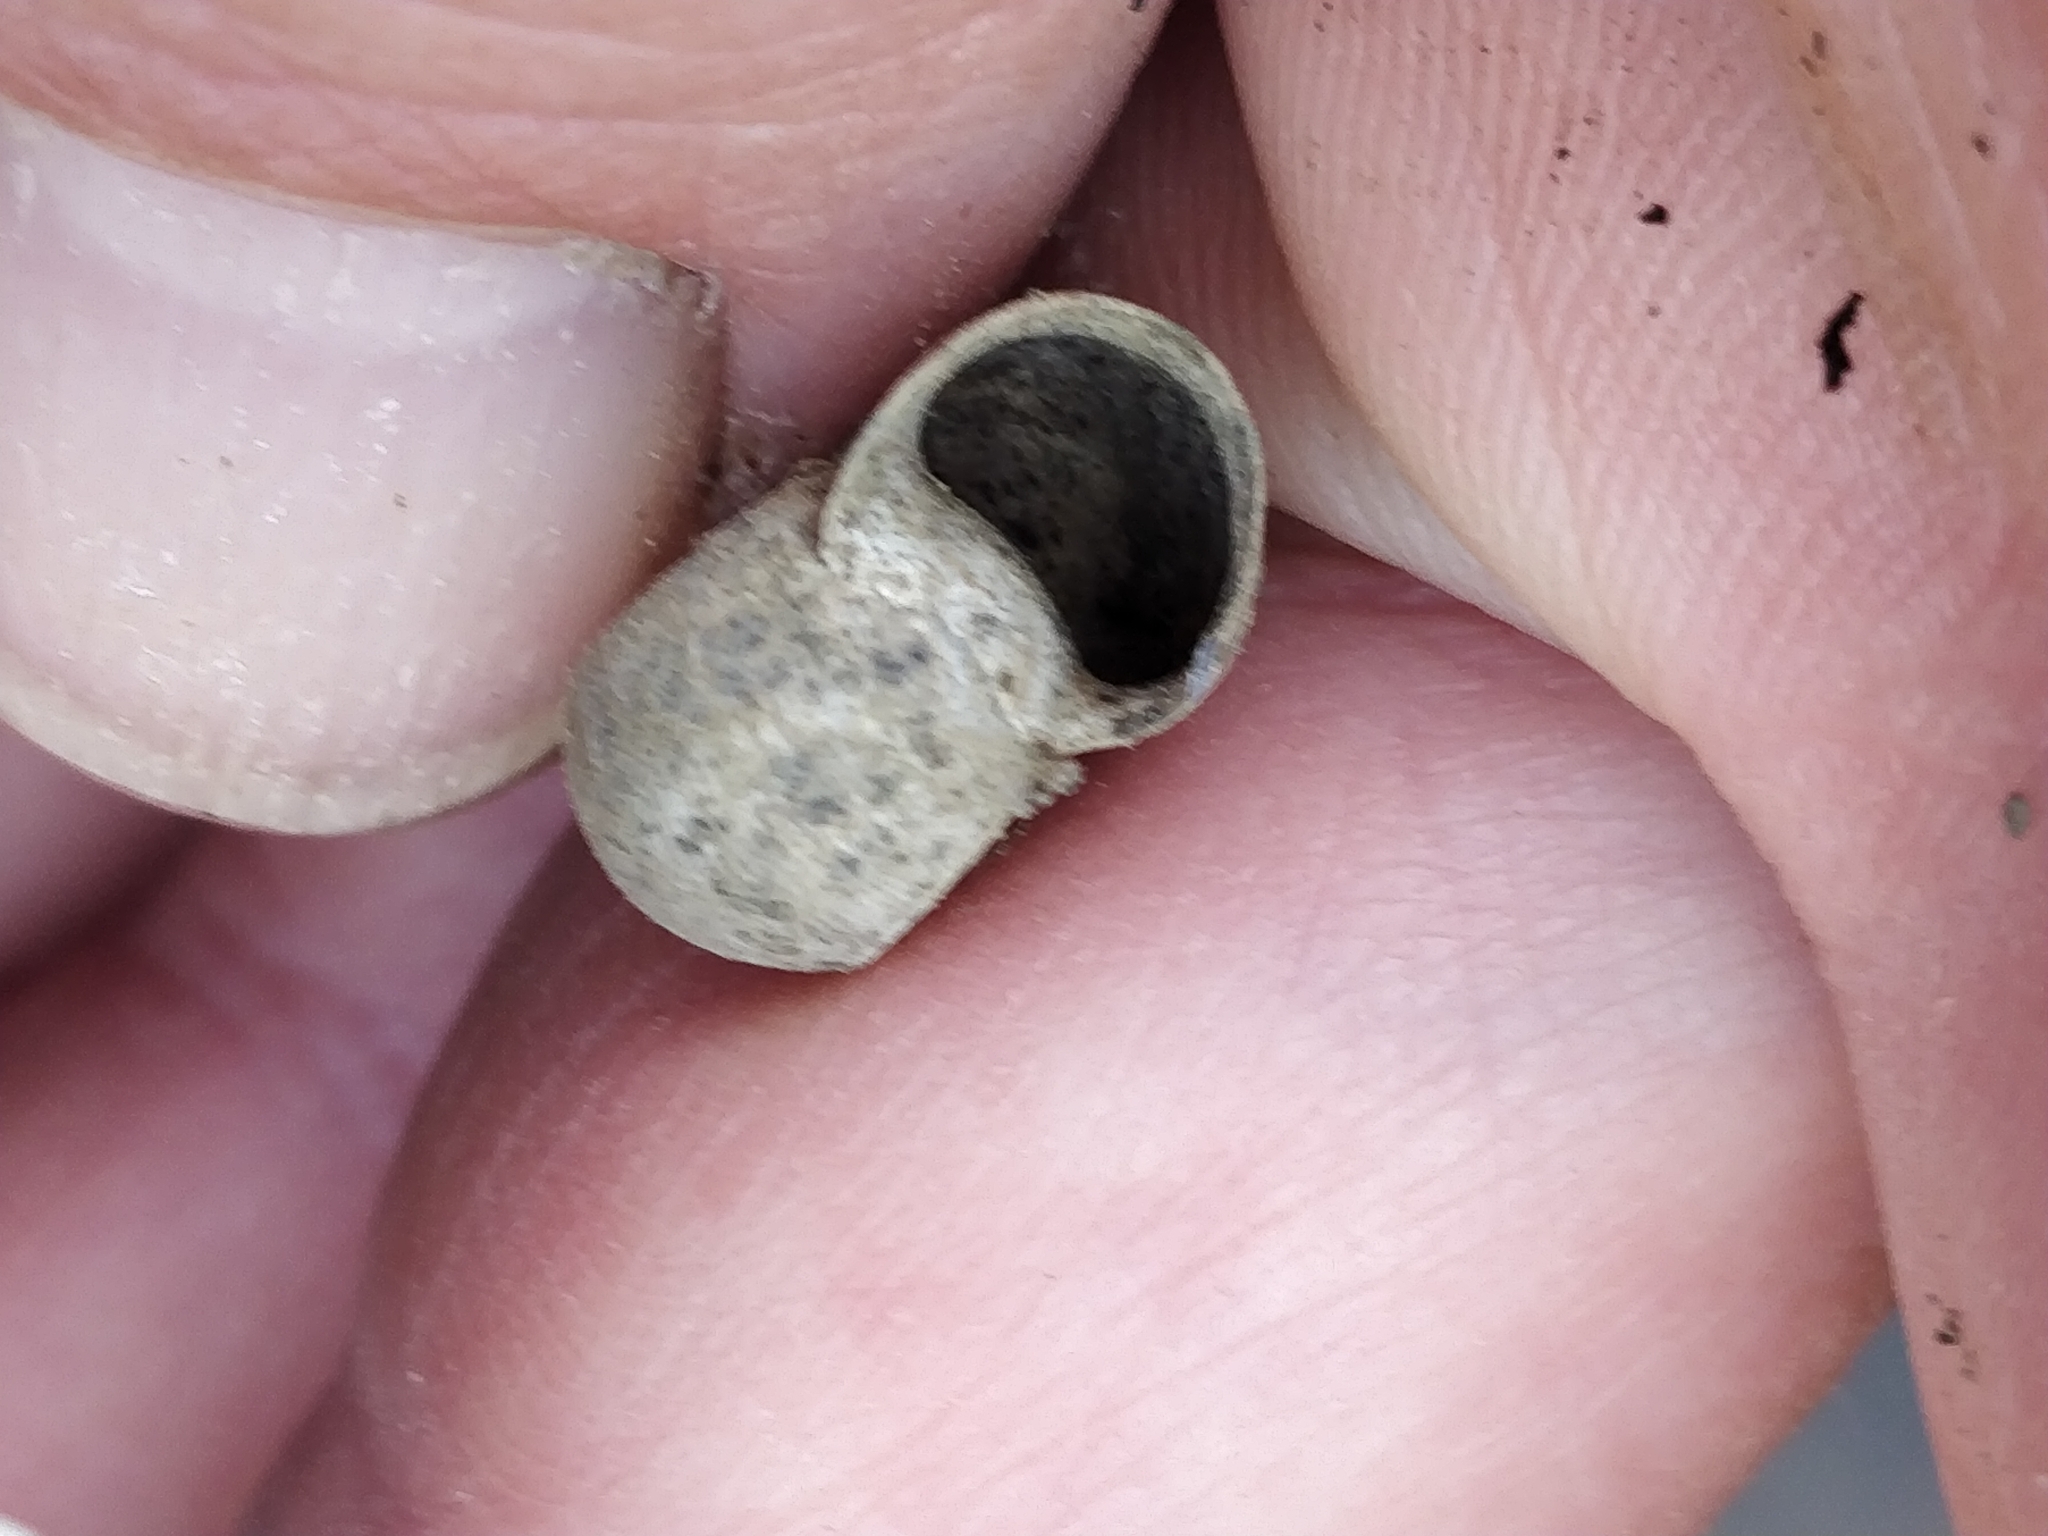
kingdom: Animalia
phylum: Mollusca
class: Gastropoda
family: Planorbidae
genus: Planorbella
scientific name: Planorbella trivolvis
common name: Marsh rams-horn
